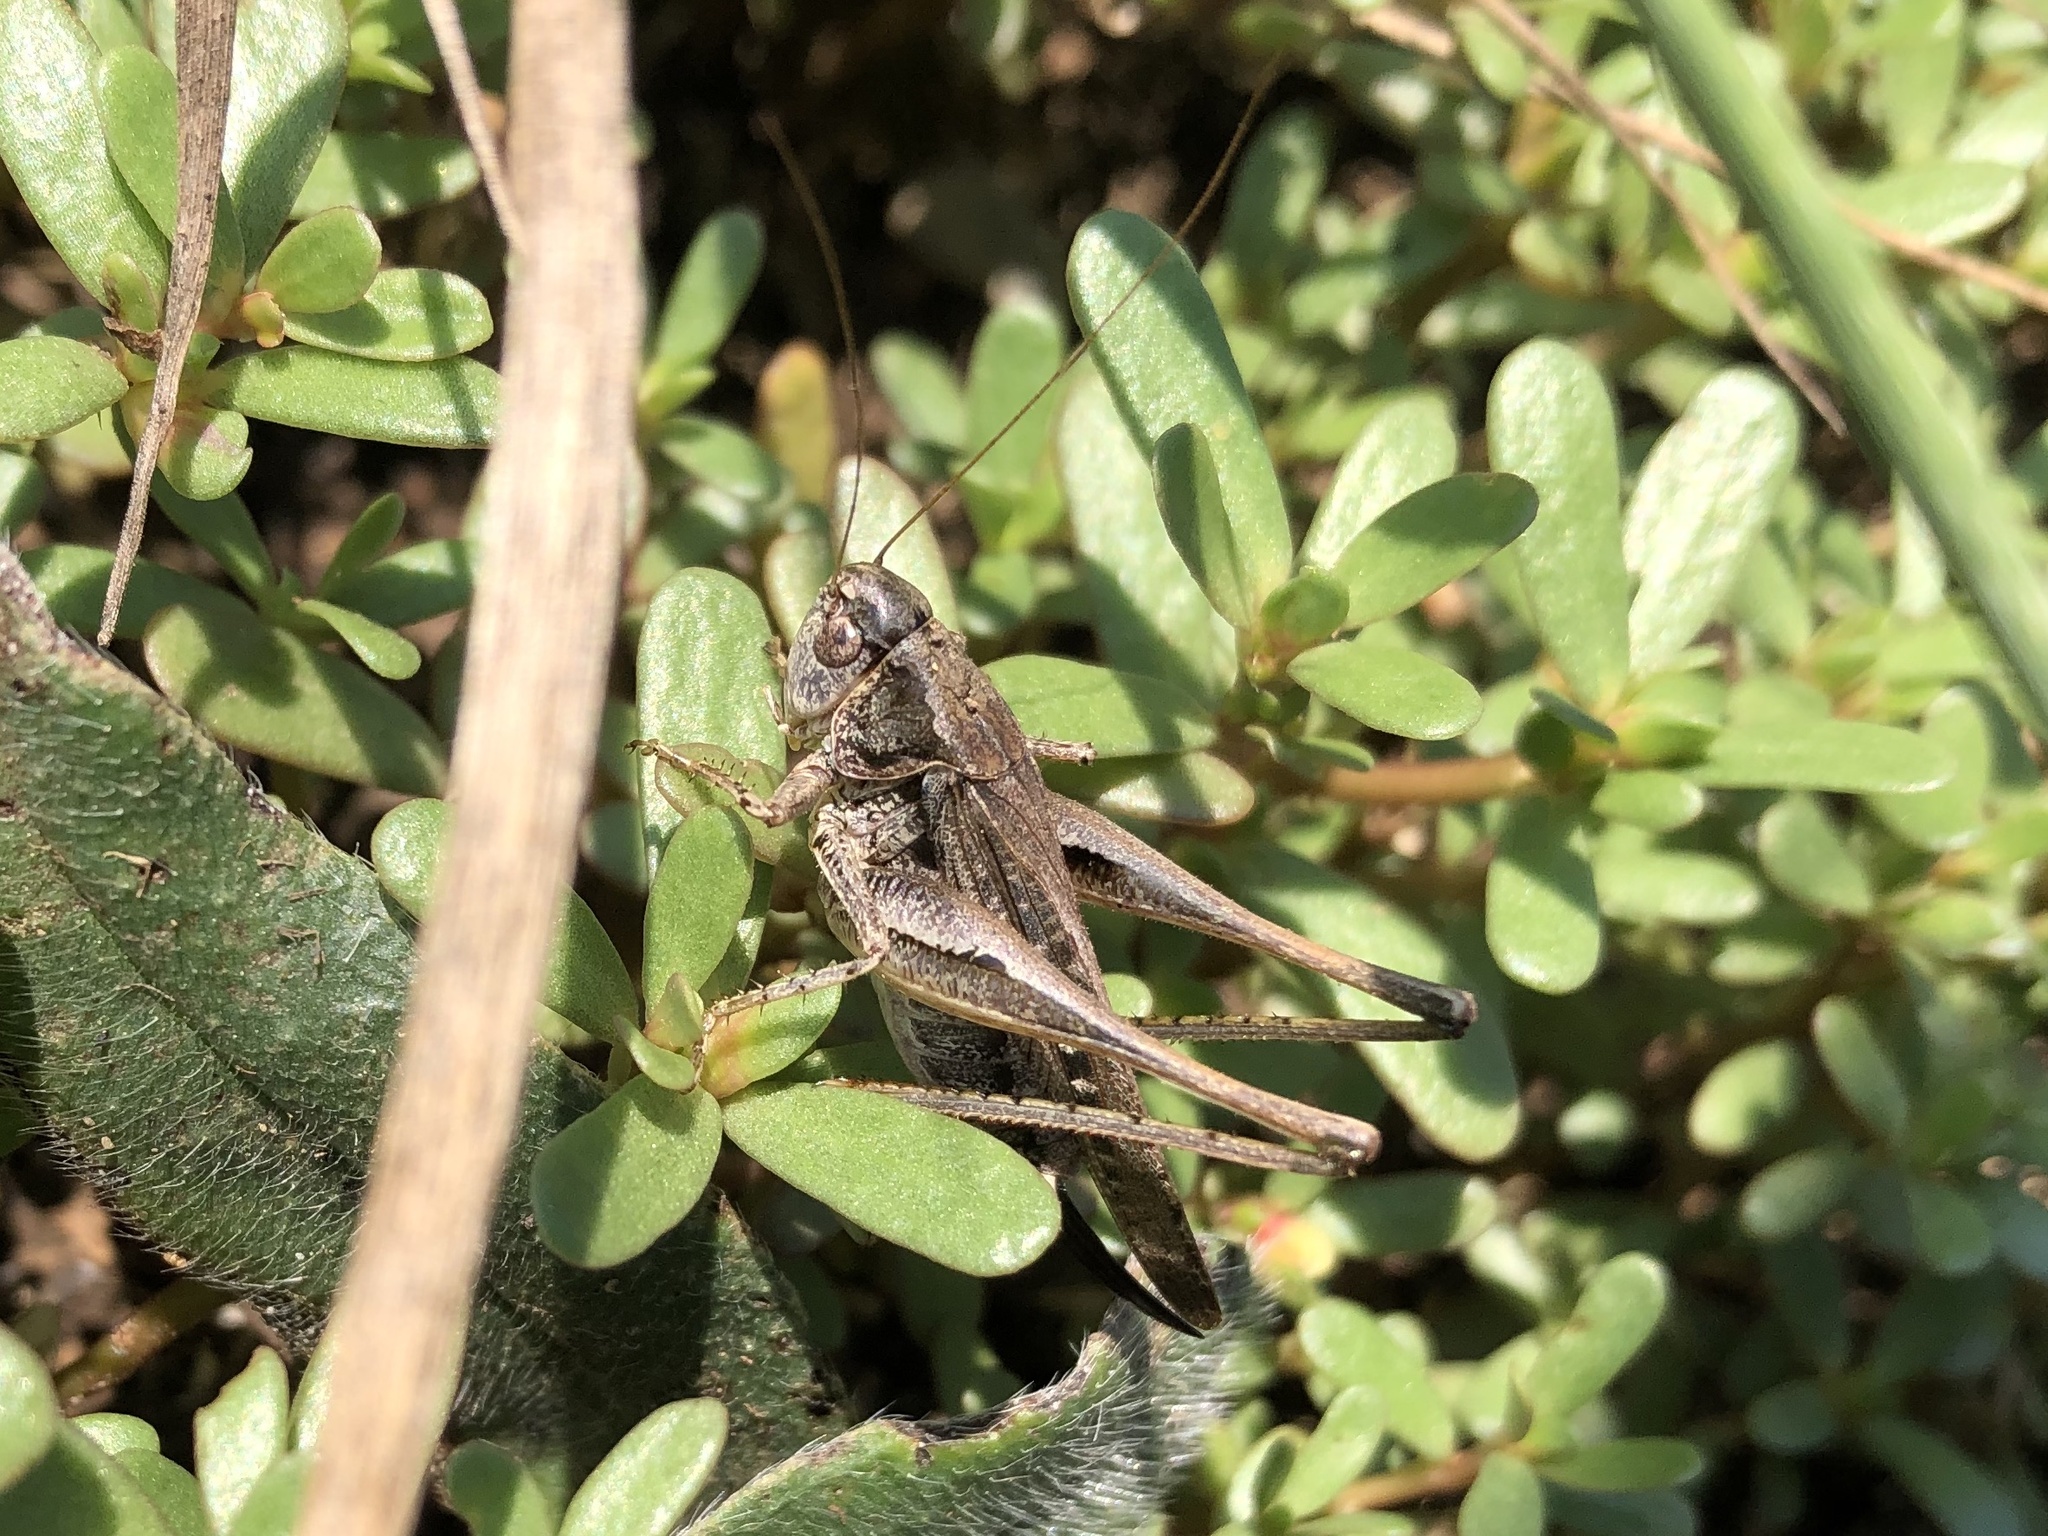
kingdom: Animalia
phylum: Arthropoda
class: Insecta
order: Orthoptera
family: Tettigoniidae
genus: Platycleis
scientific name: Platycleis albopunctata
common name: Grey bush-cricket
